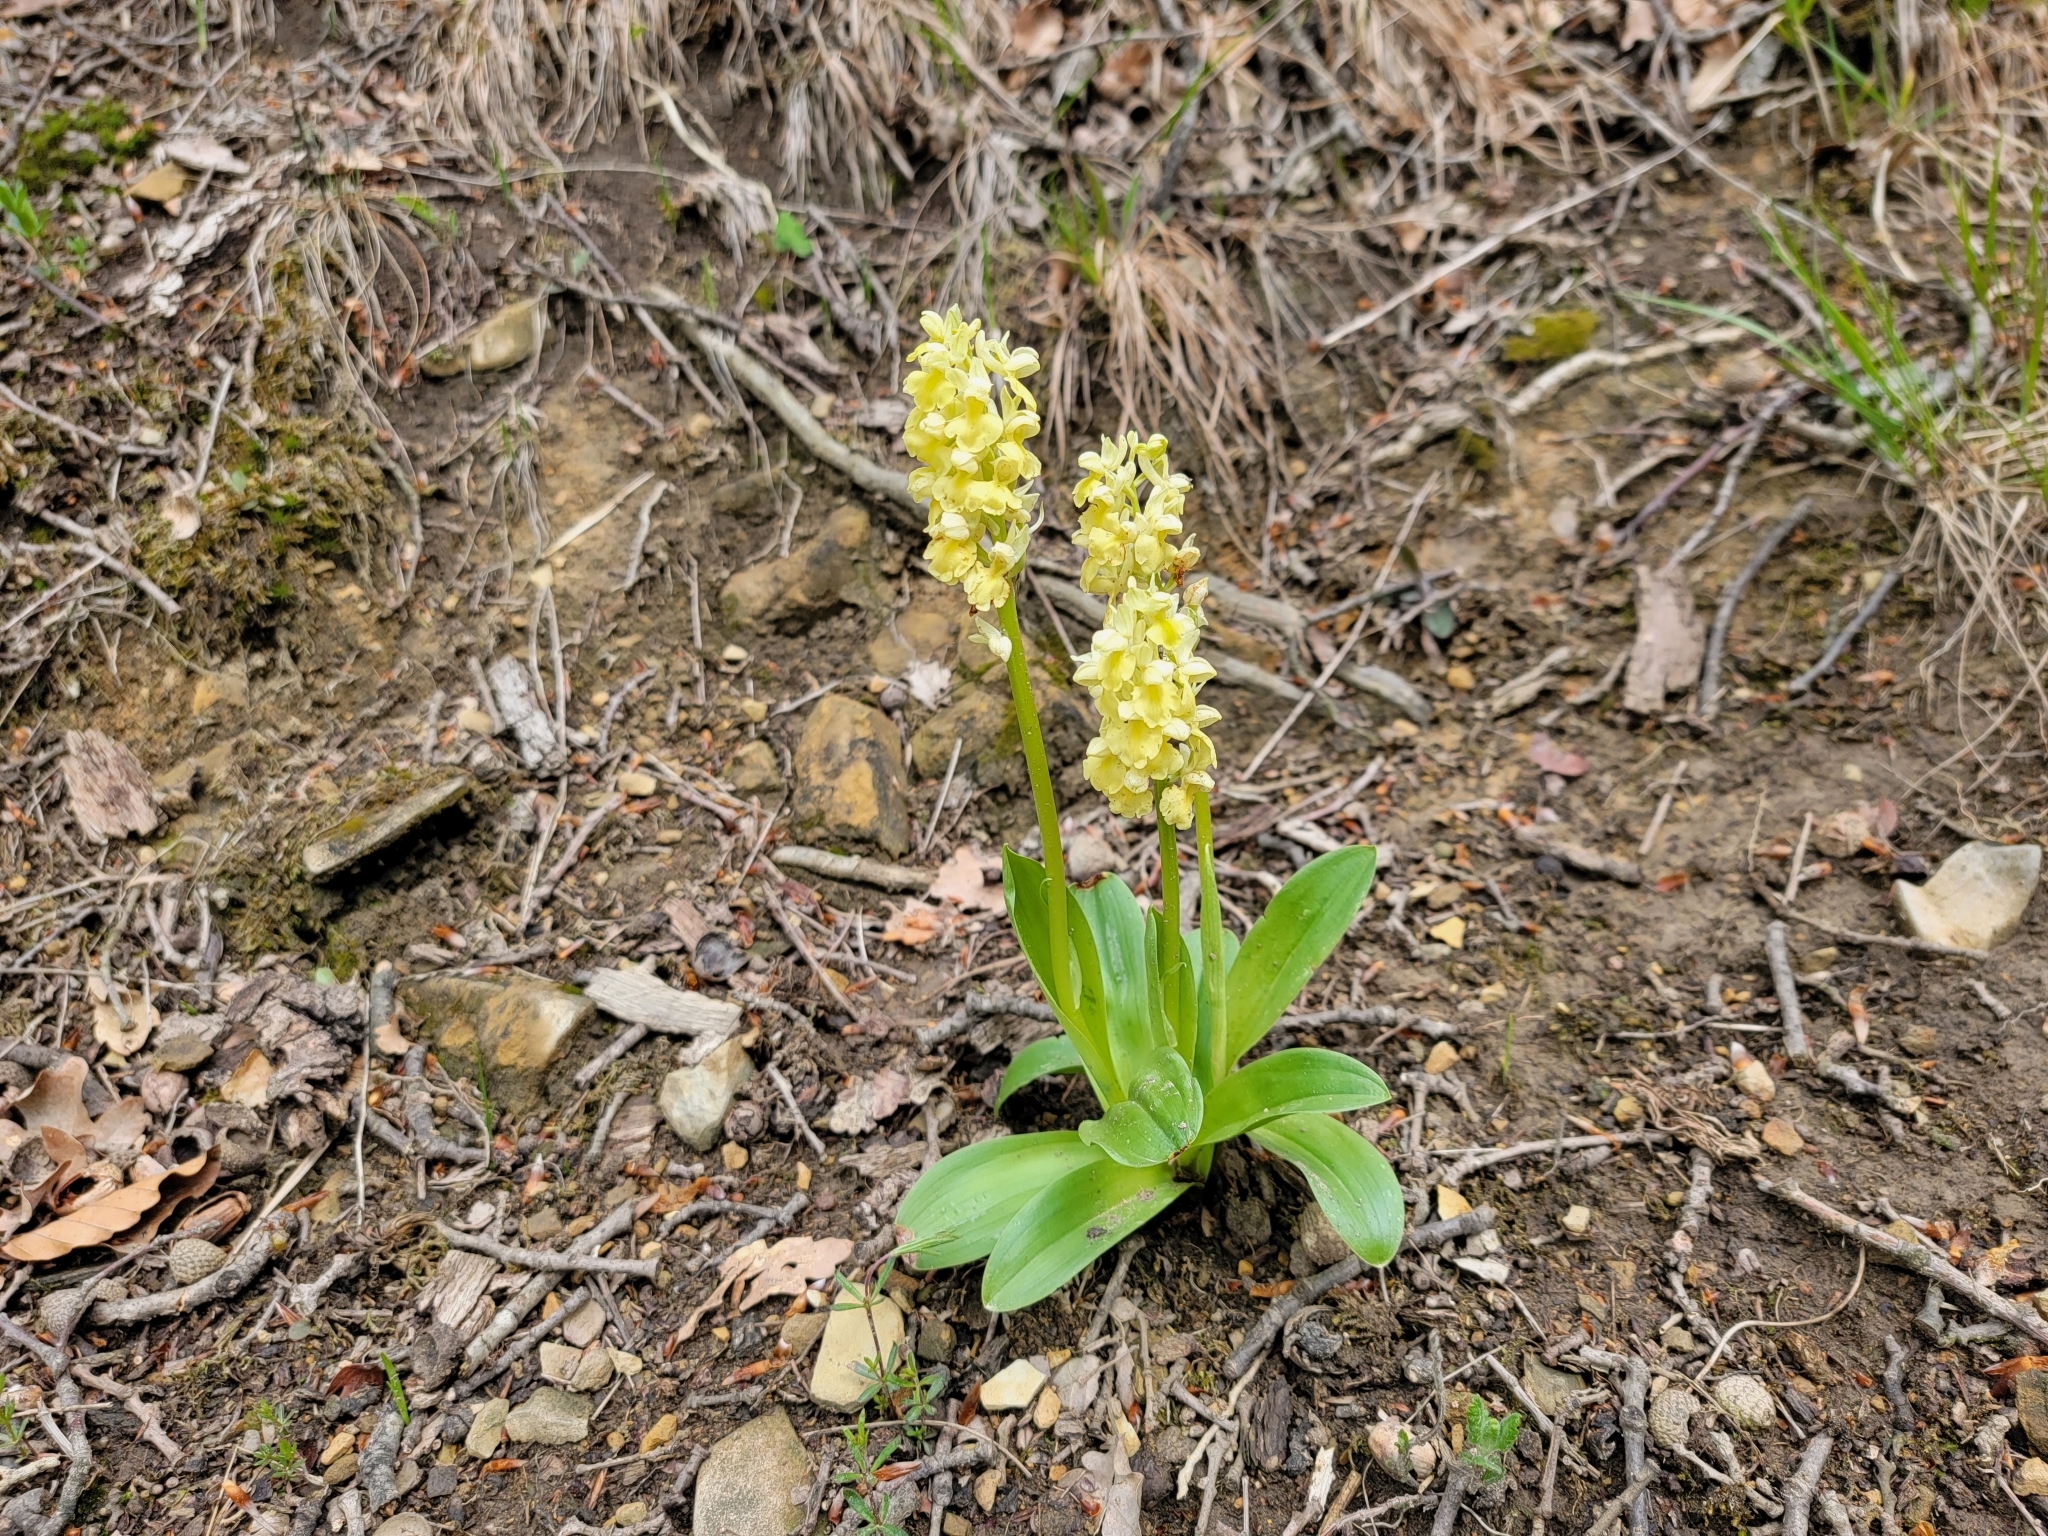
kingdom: Plantae
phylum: Tracheophyta
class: Liliopsida
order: Asparagales
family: Orchidaceae
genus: Orchis
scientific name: Orchis pallens
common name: Pale-flowered orchid
